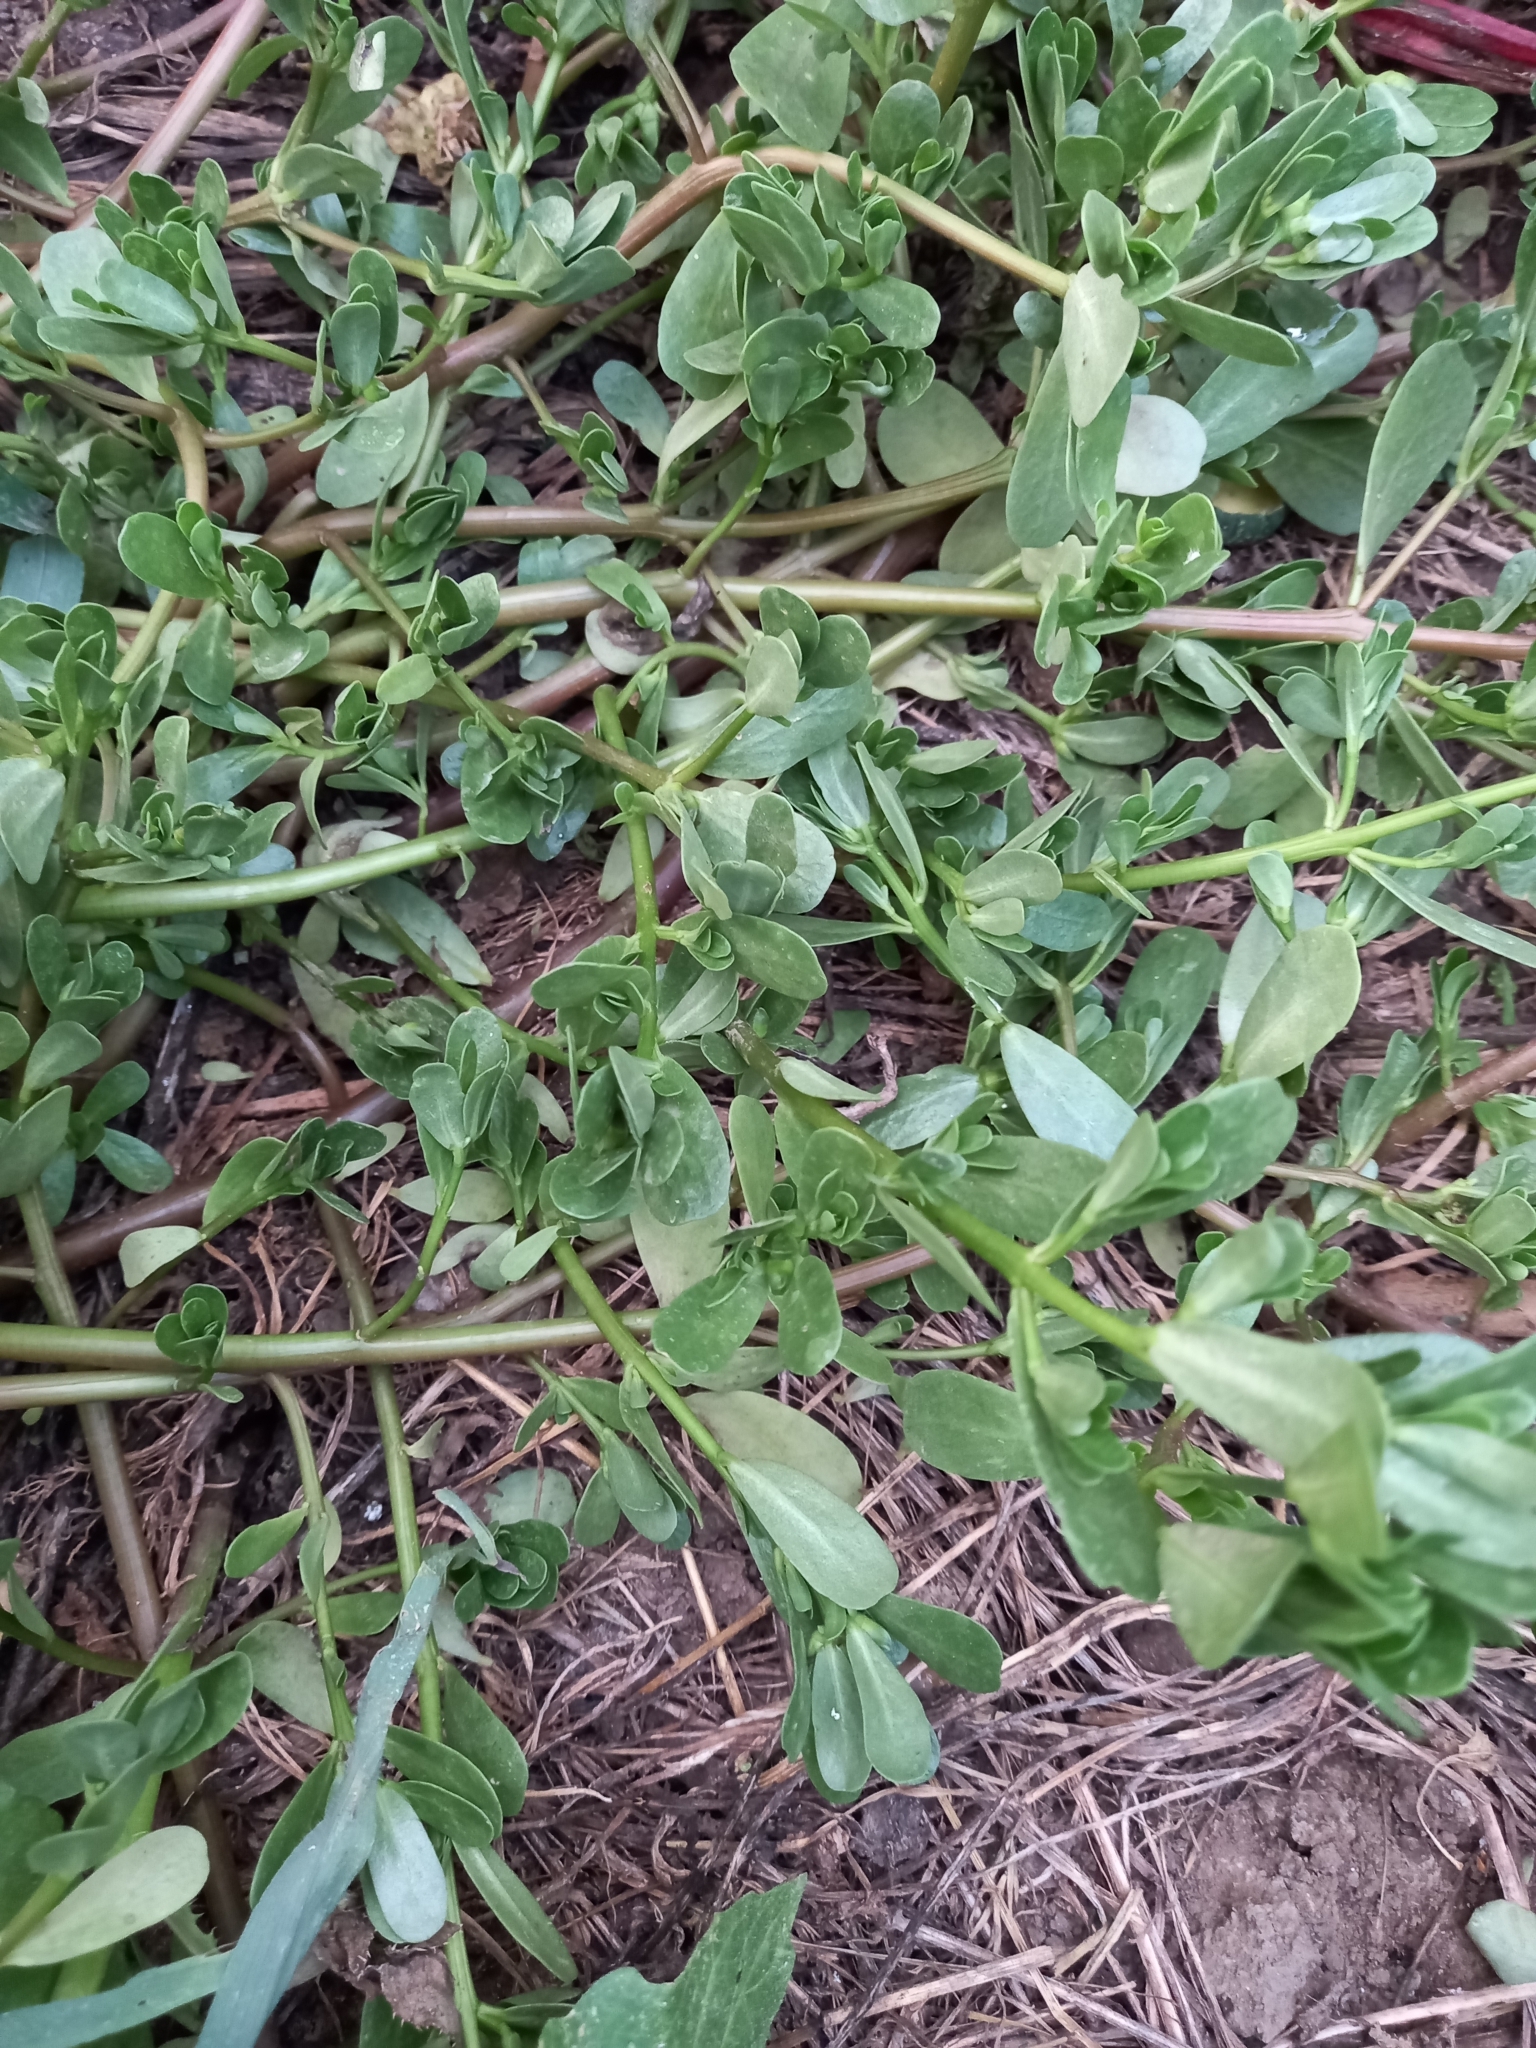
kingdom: Plantae
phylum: Tracheophyta
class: Magnoliopsida
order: Caryophyllales
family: Portulacaceae
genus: Portulaca
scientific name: Portulaca oleracea
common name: Common purslane
